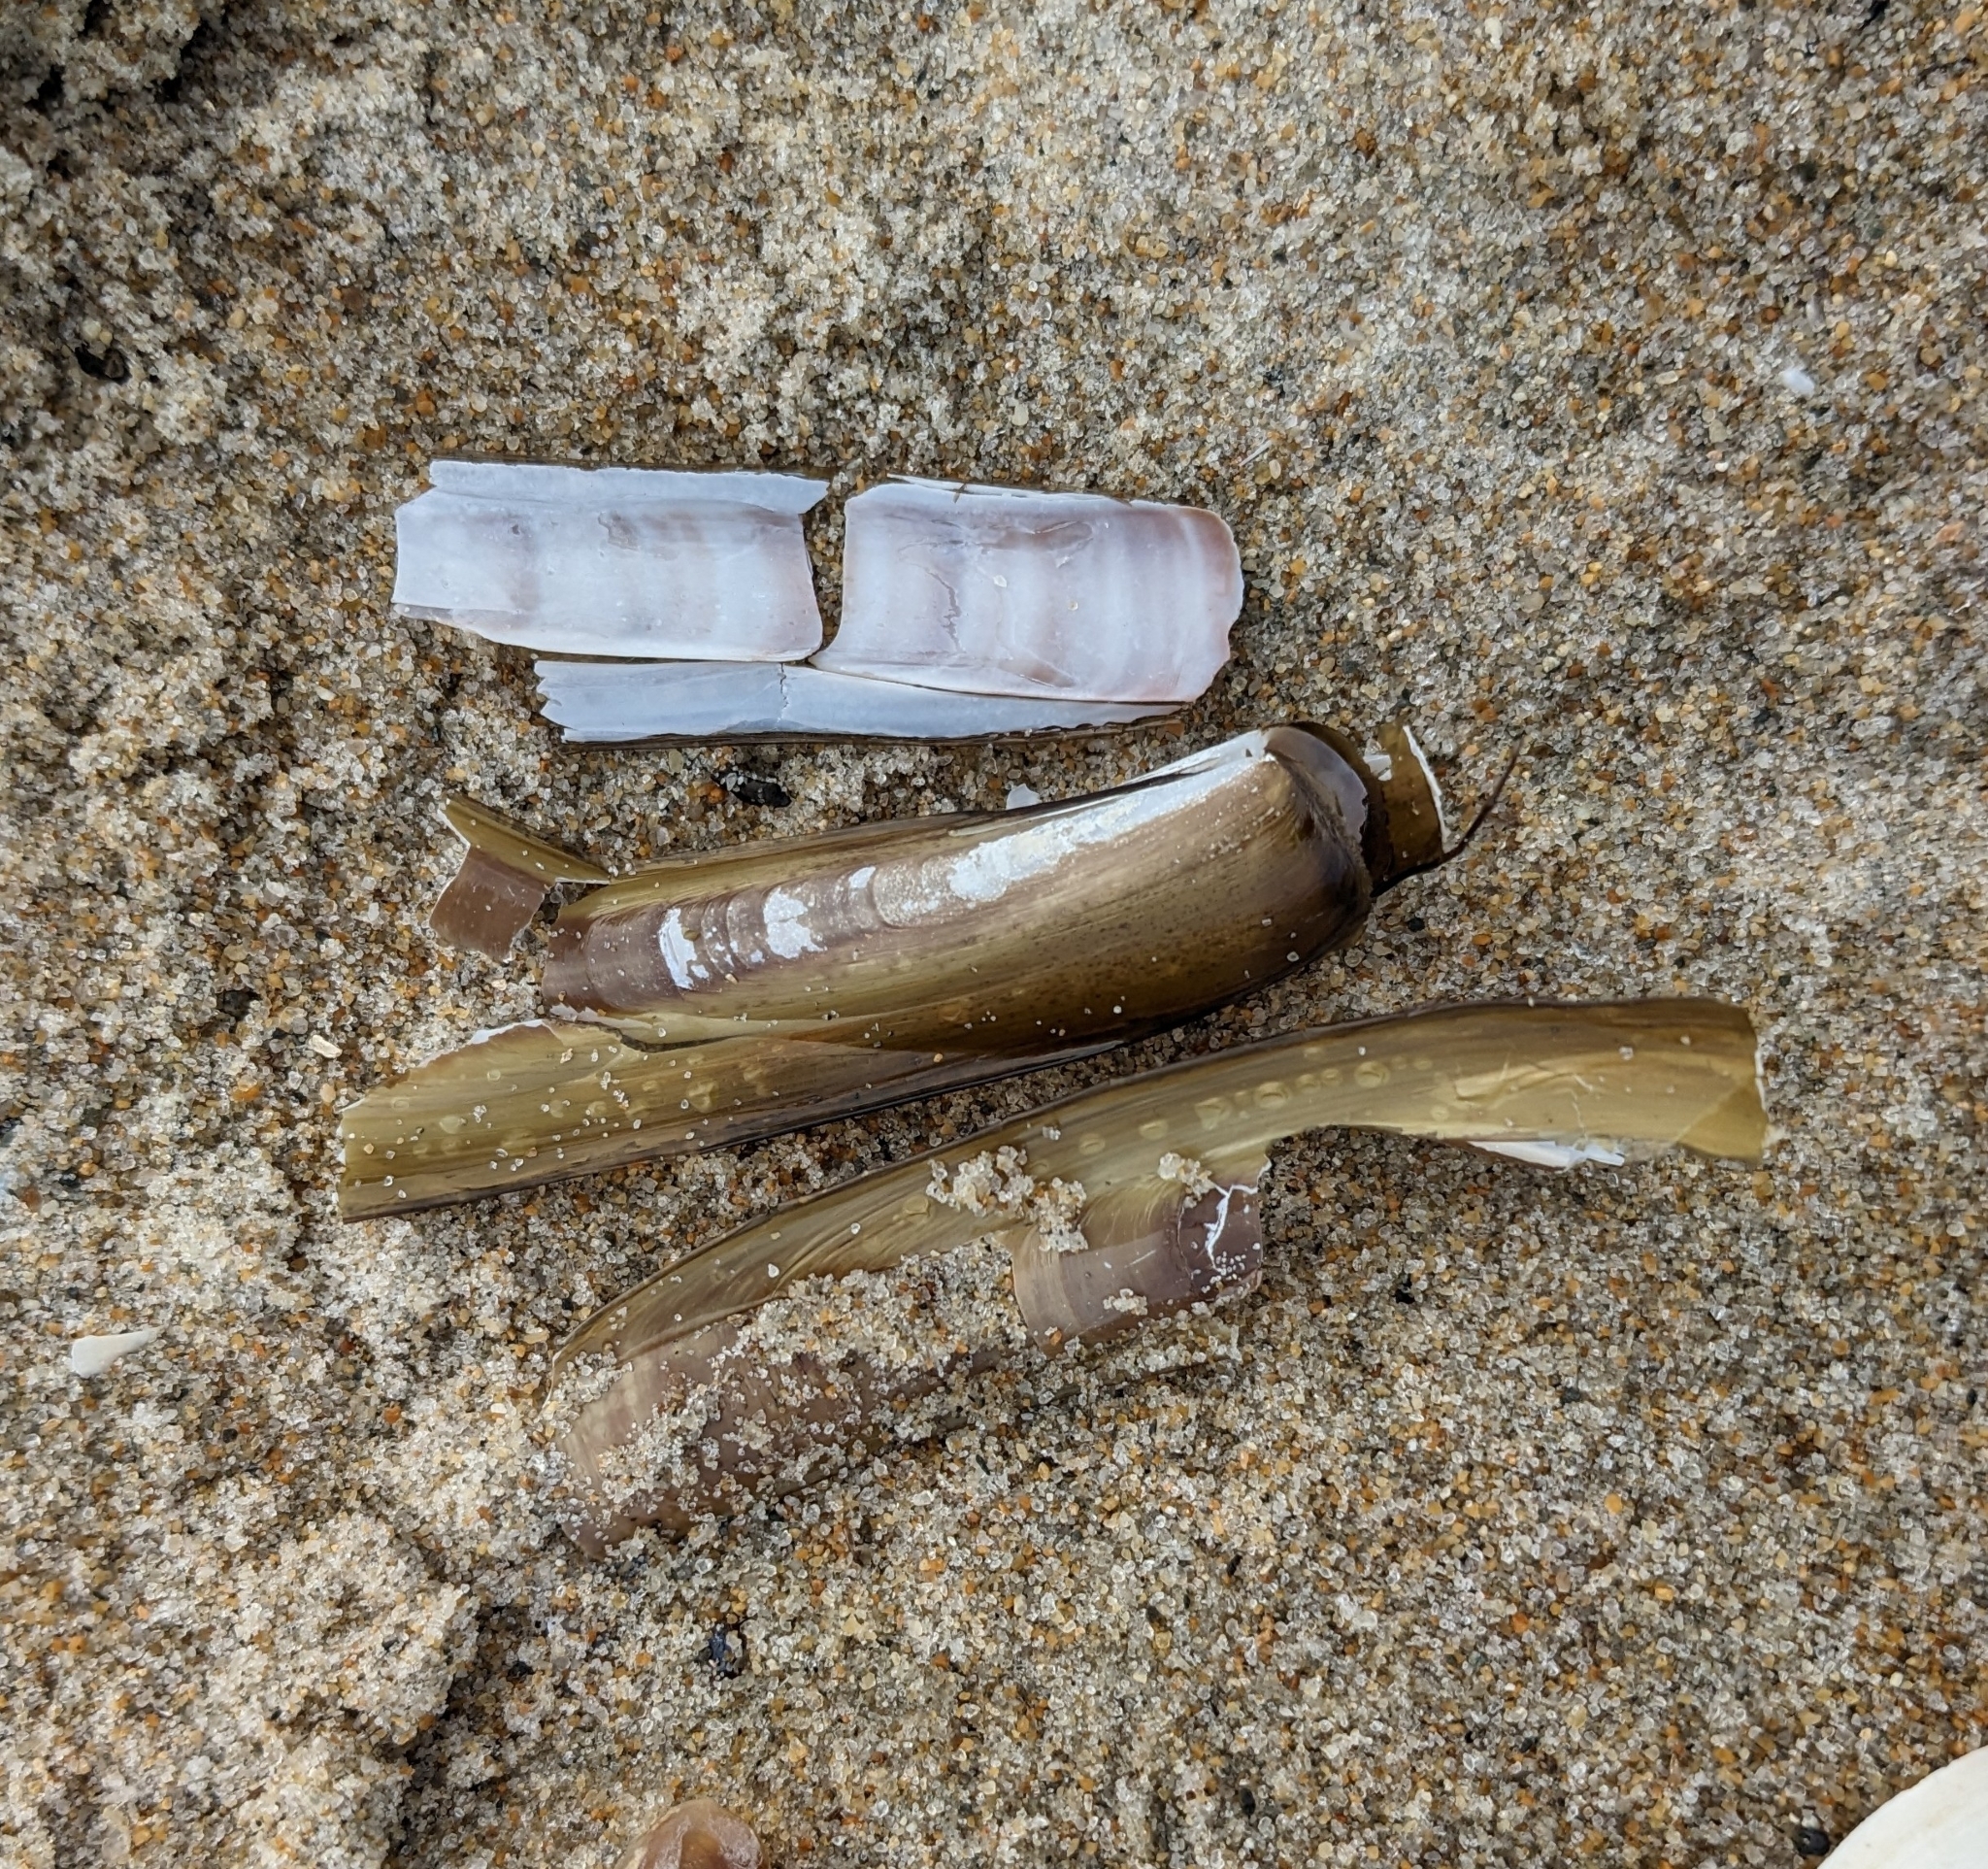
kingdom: Animalia
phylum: Mollusca
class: Bivalvia
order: Adapedonta
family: Pharidae
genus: Ensis
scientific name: Ensis leei
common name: American jack knife clam
